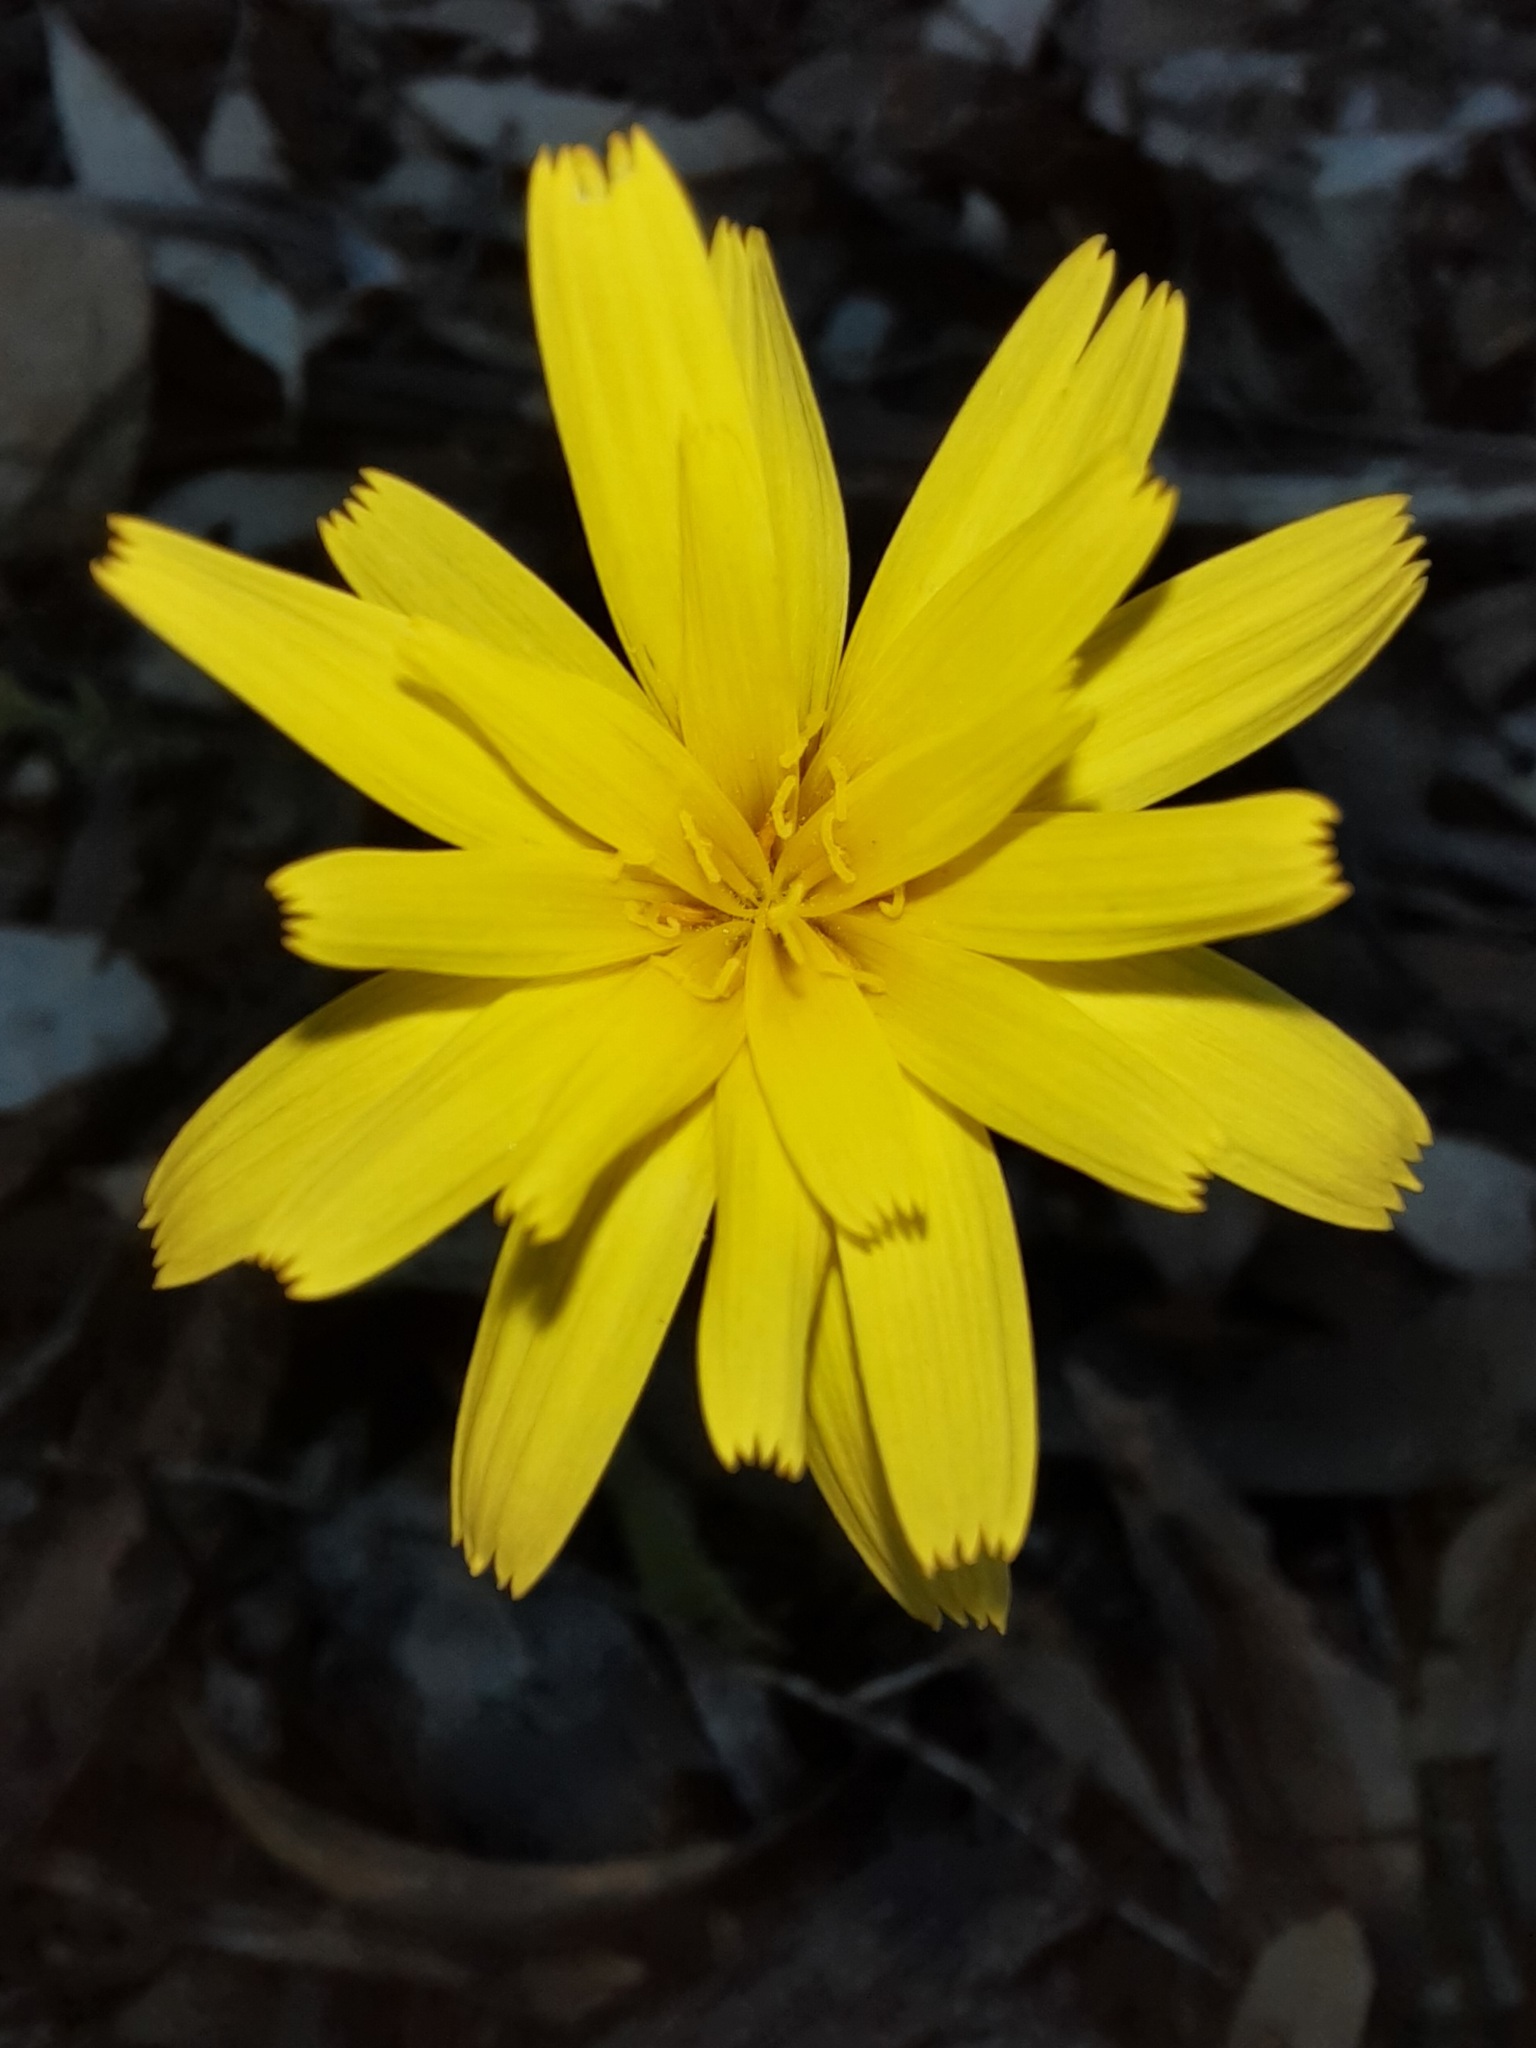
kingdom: Plantae
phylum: Tracheophyta
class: Magnoliopsida
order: Asterales
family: Asteraceae
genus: Microseris
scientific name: Microseris lanceolata
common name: Yam daisy
